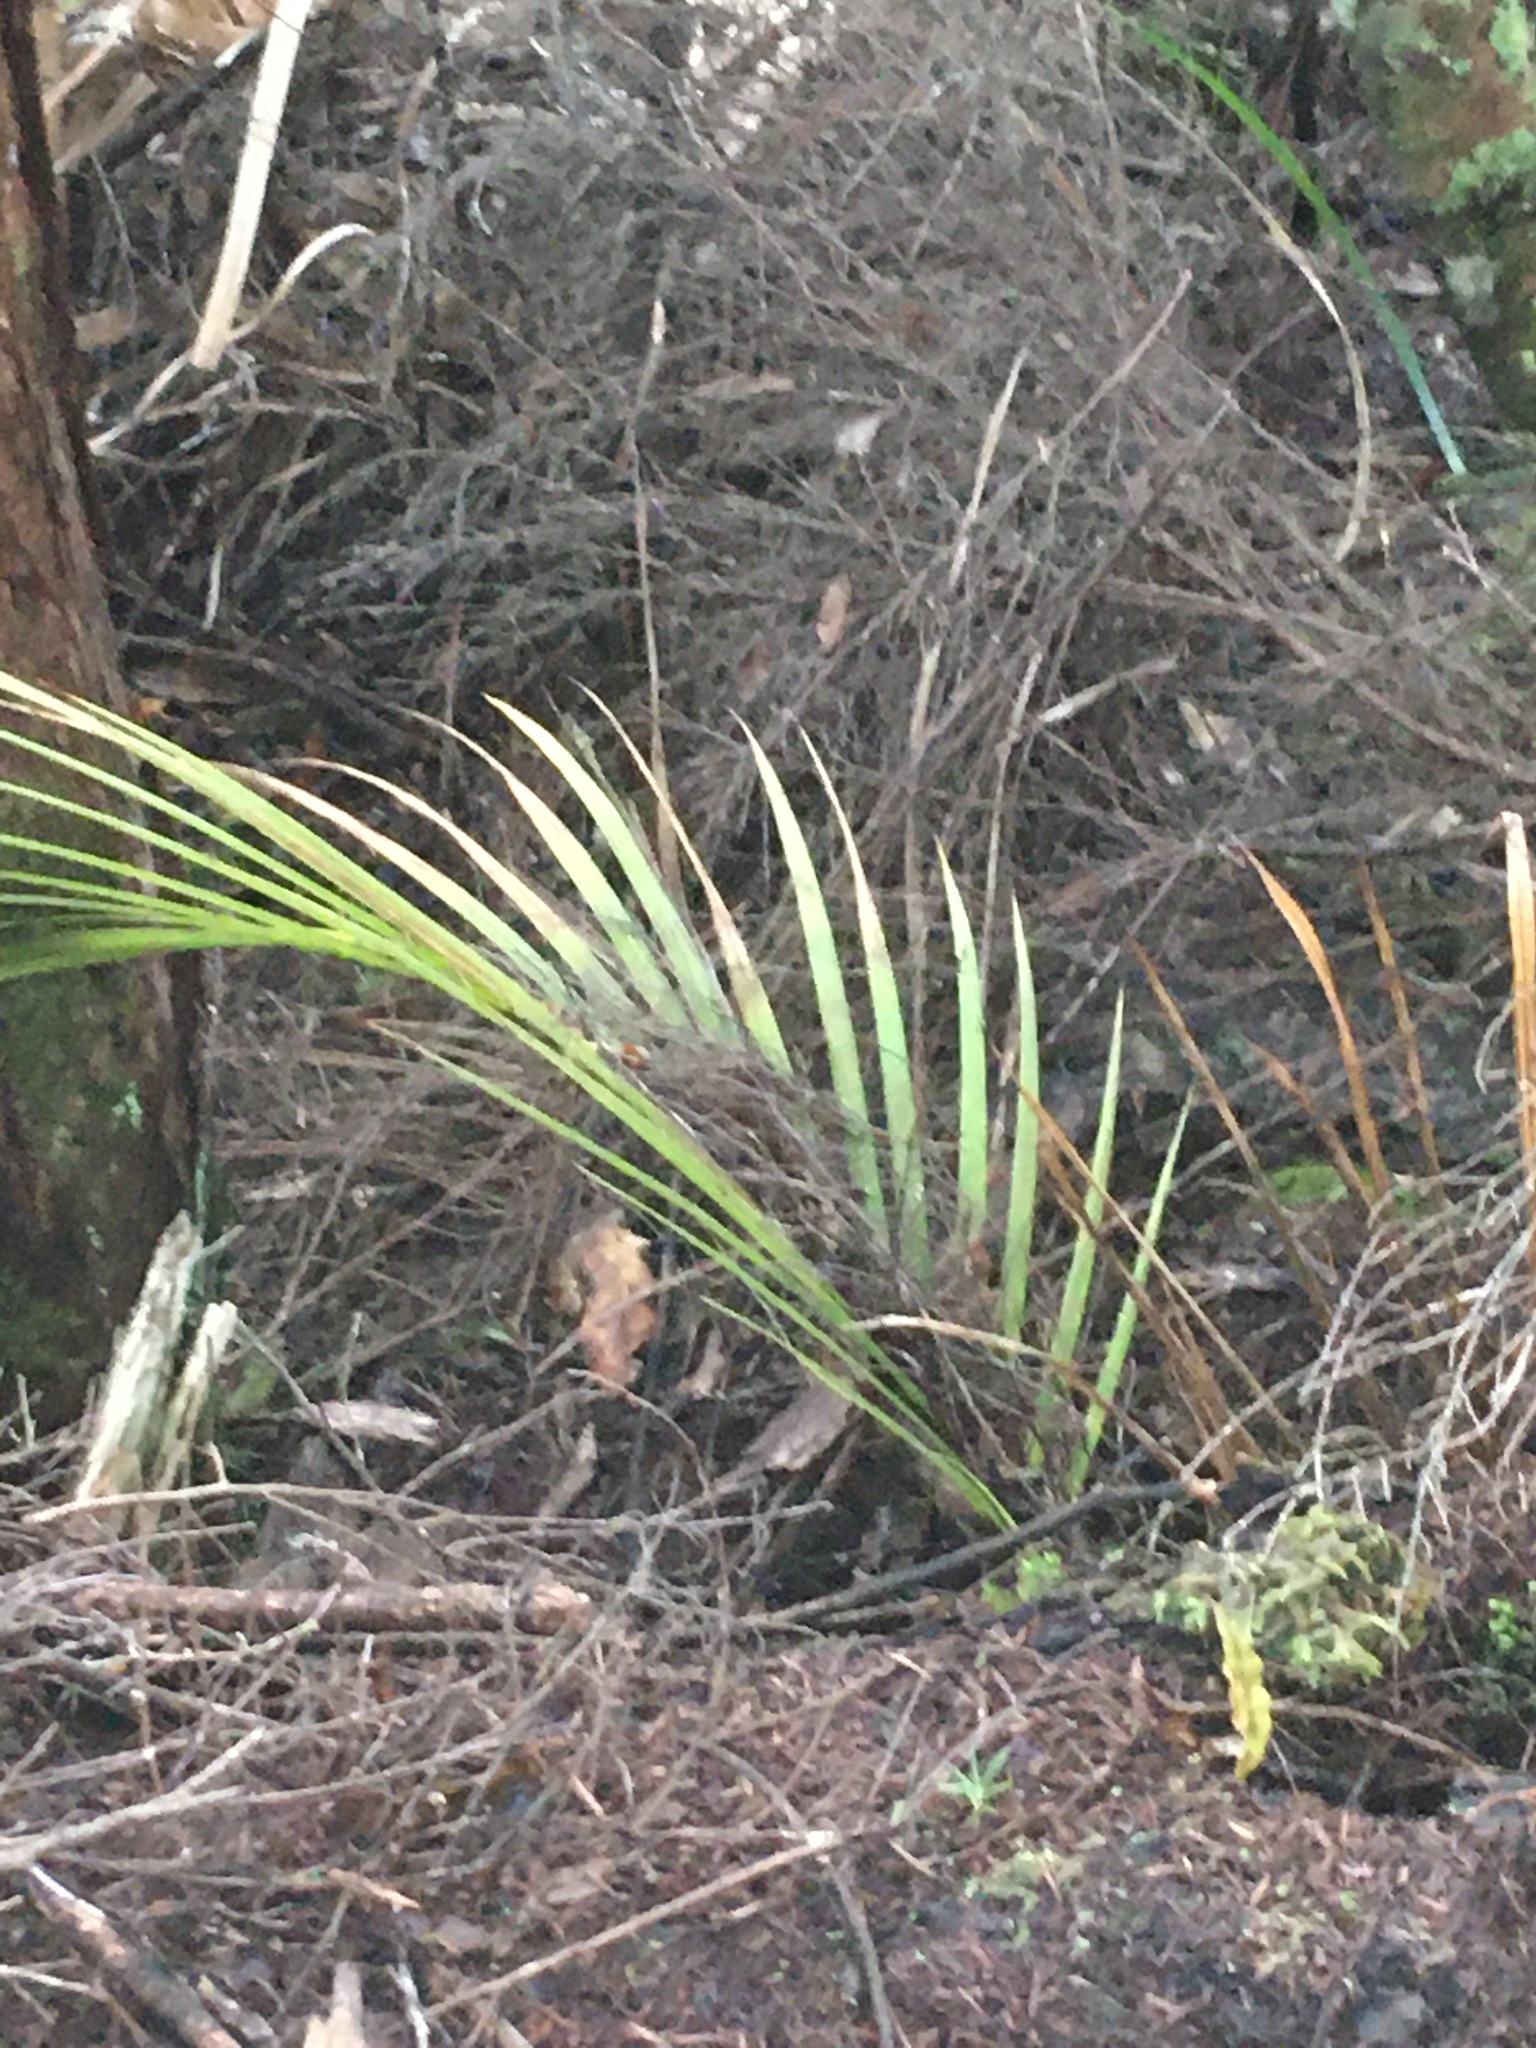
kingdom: Plantae
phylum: Tracheophyta
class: Liliopsida
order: Arecales
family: Arecaceae
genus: Rhopalostylis
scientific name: Rhopalostylis sapida
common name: Feather-duster palm
